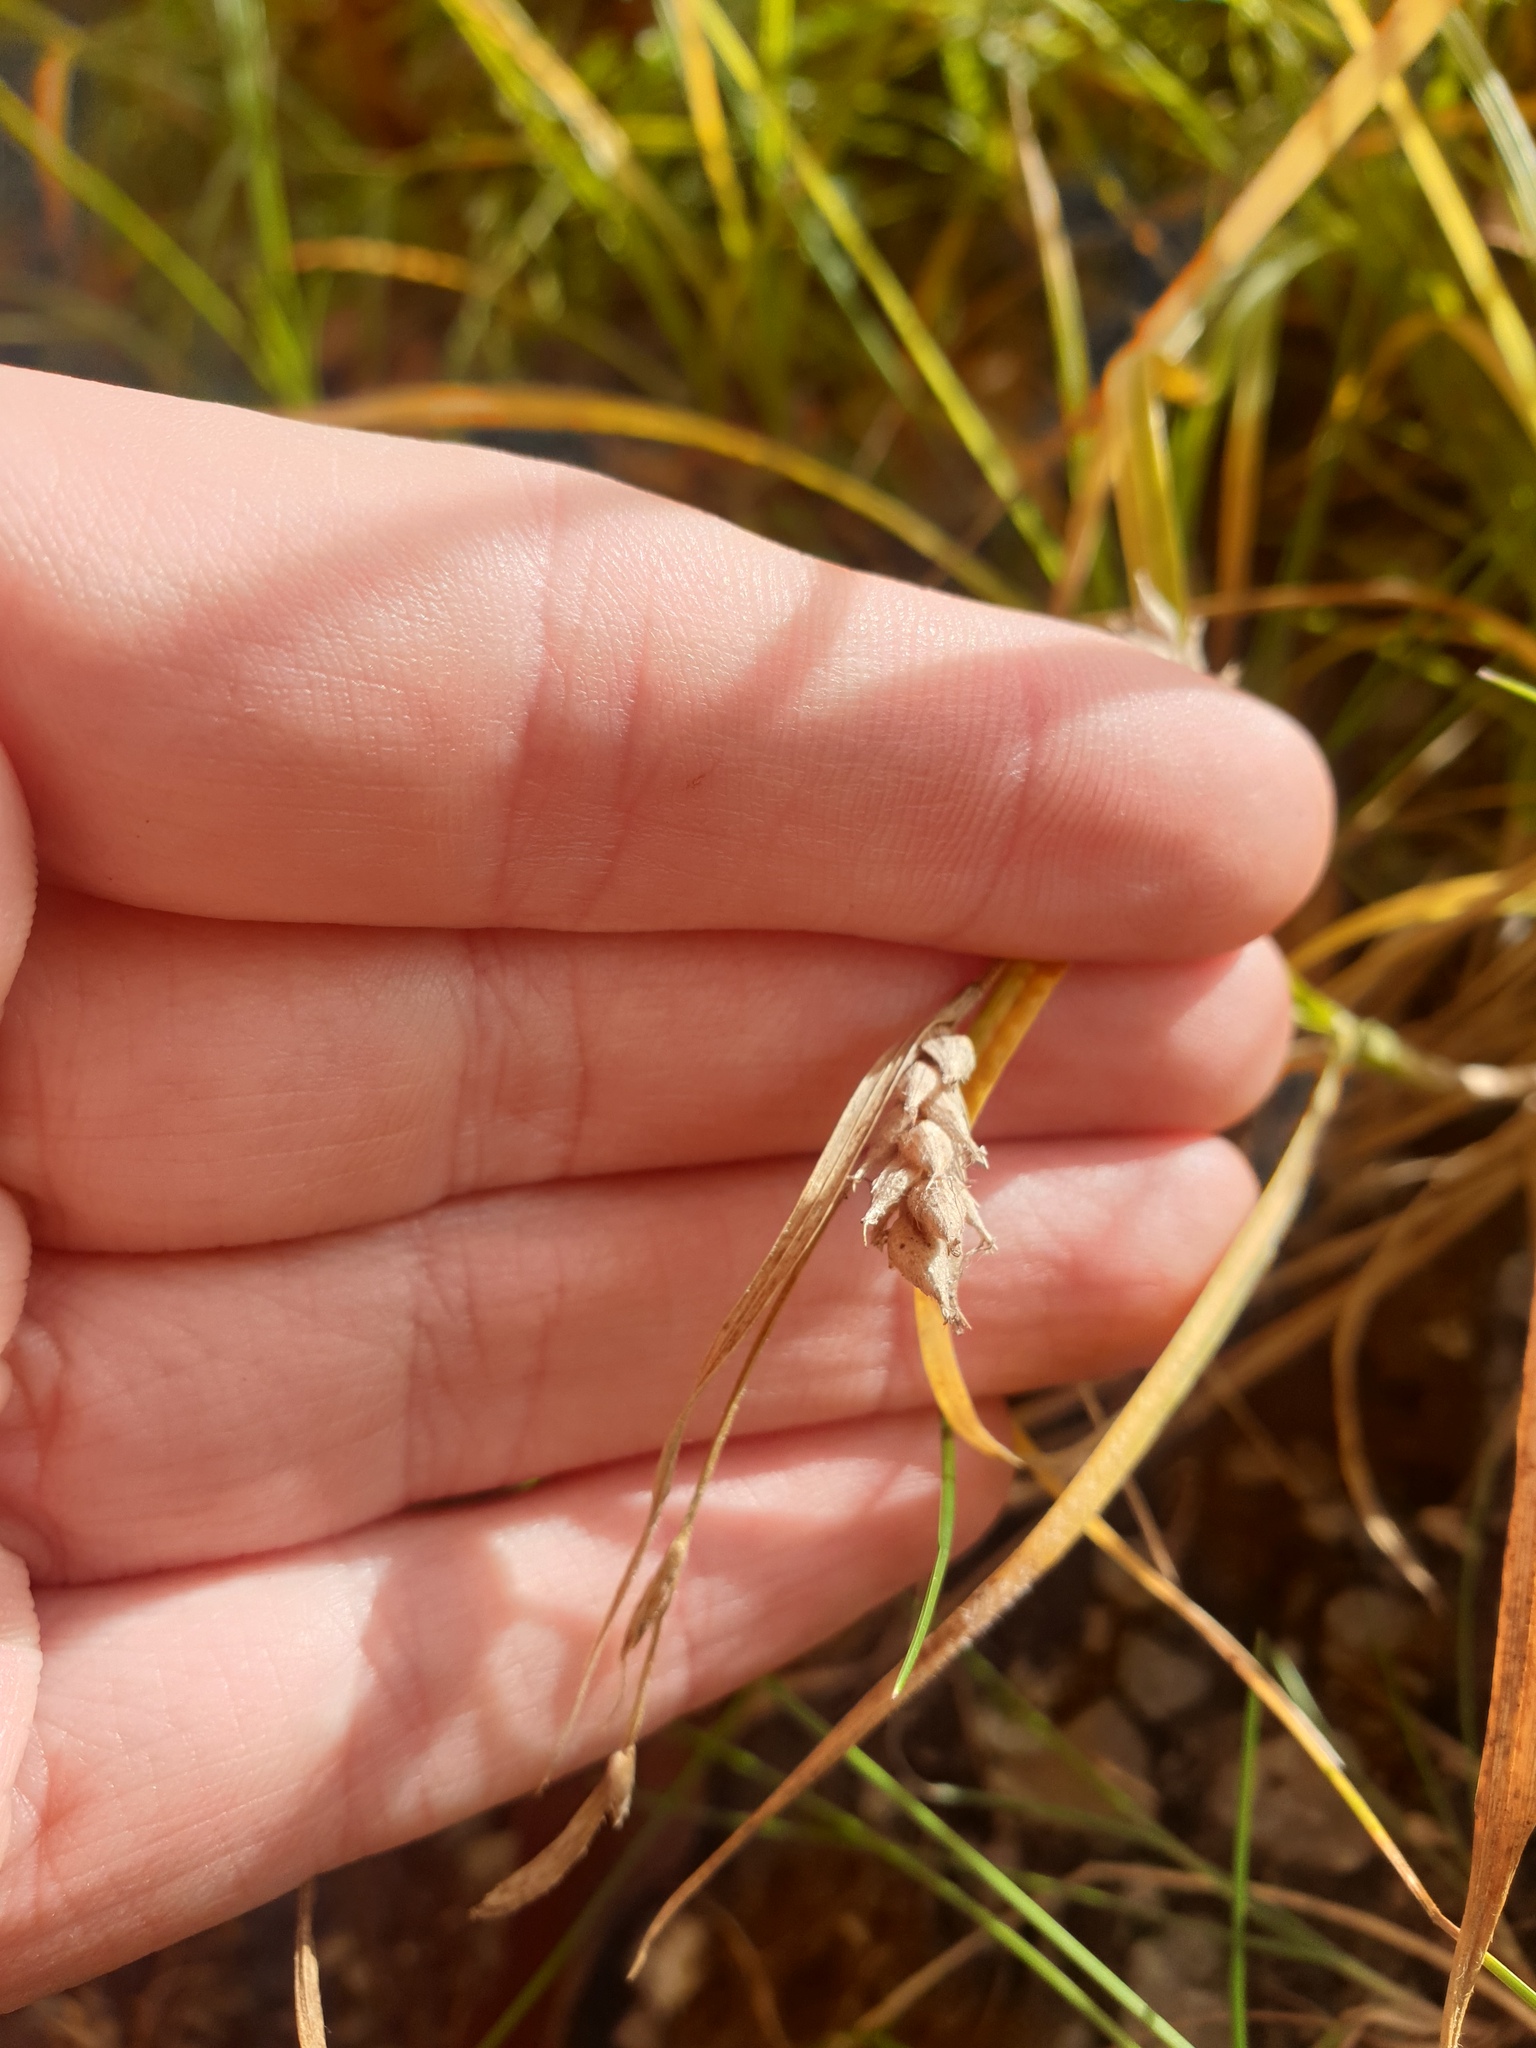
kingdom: Plantae
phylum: Tracheophyta
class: Liliopsida
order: Poales
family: Cyperaceae
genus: Carex
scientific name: Carex hirta
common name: Hairy sedge
